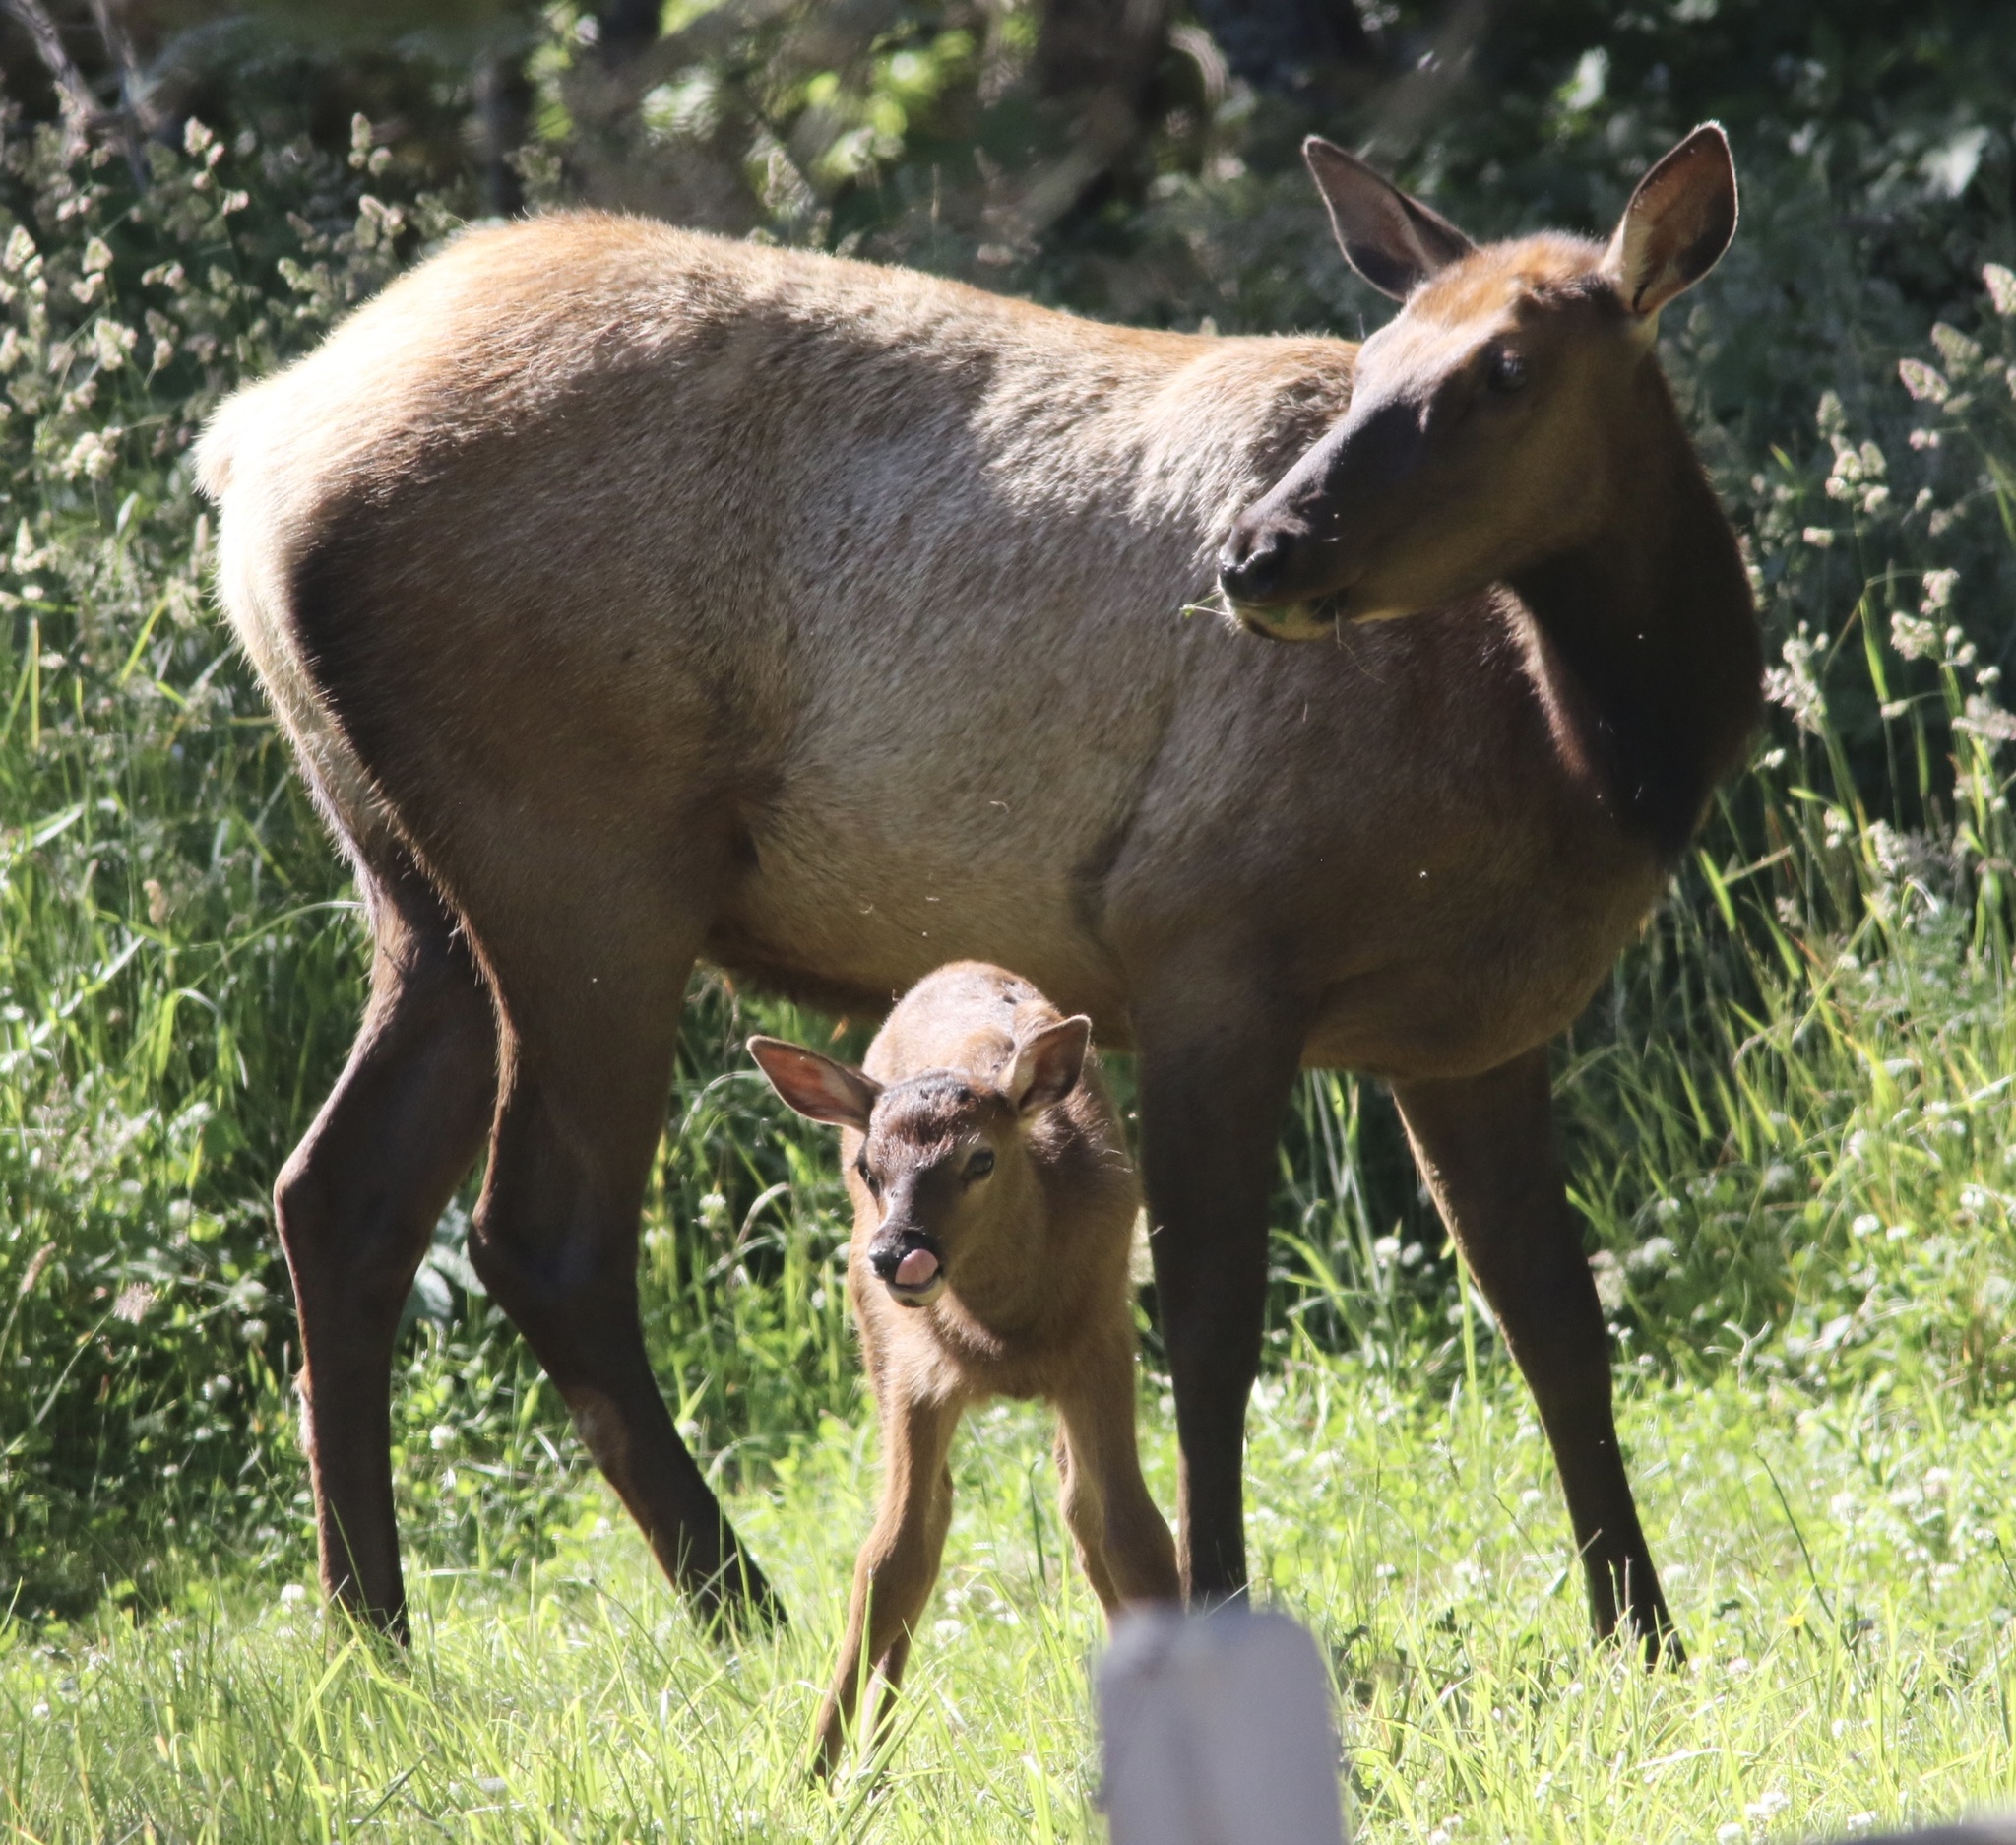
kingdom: Animalia
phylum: Chordata
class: Mammalia
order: Artiodactyla
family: Cervidae
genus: Cervus
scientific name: Cervus elaphus
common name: Red deer
